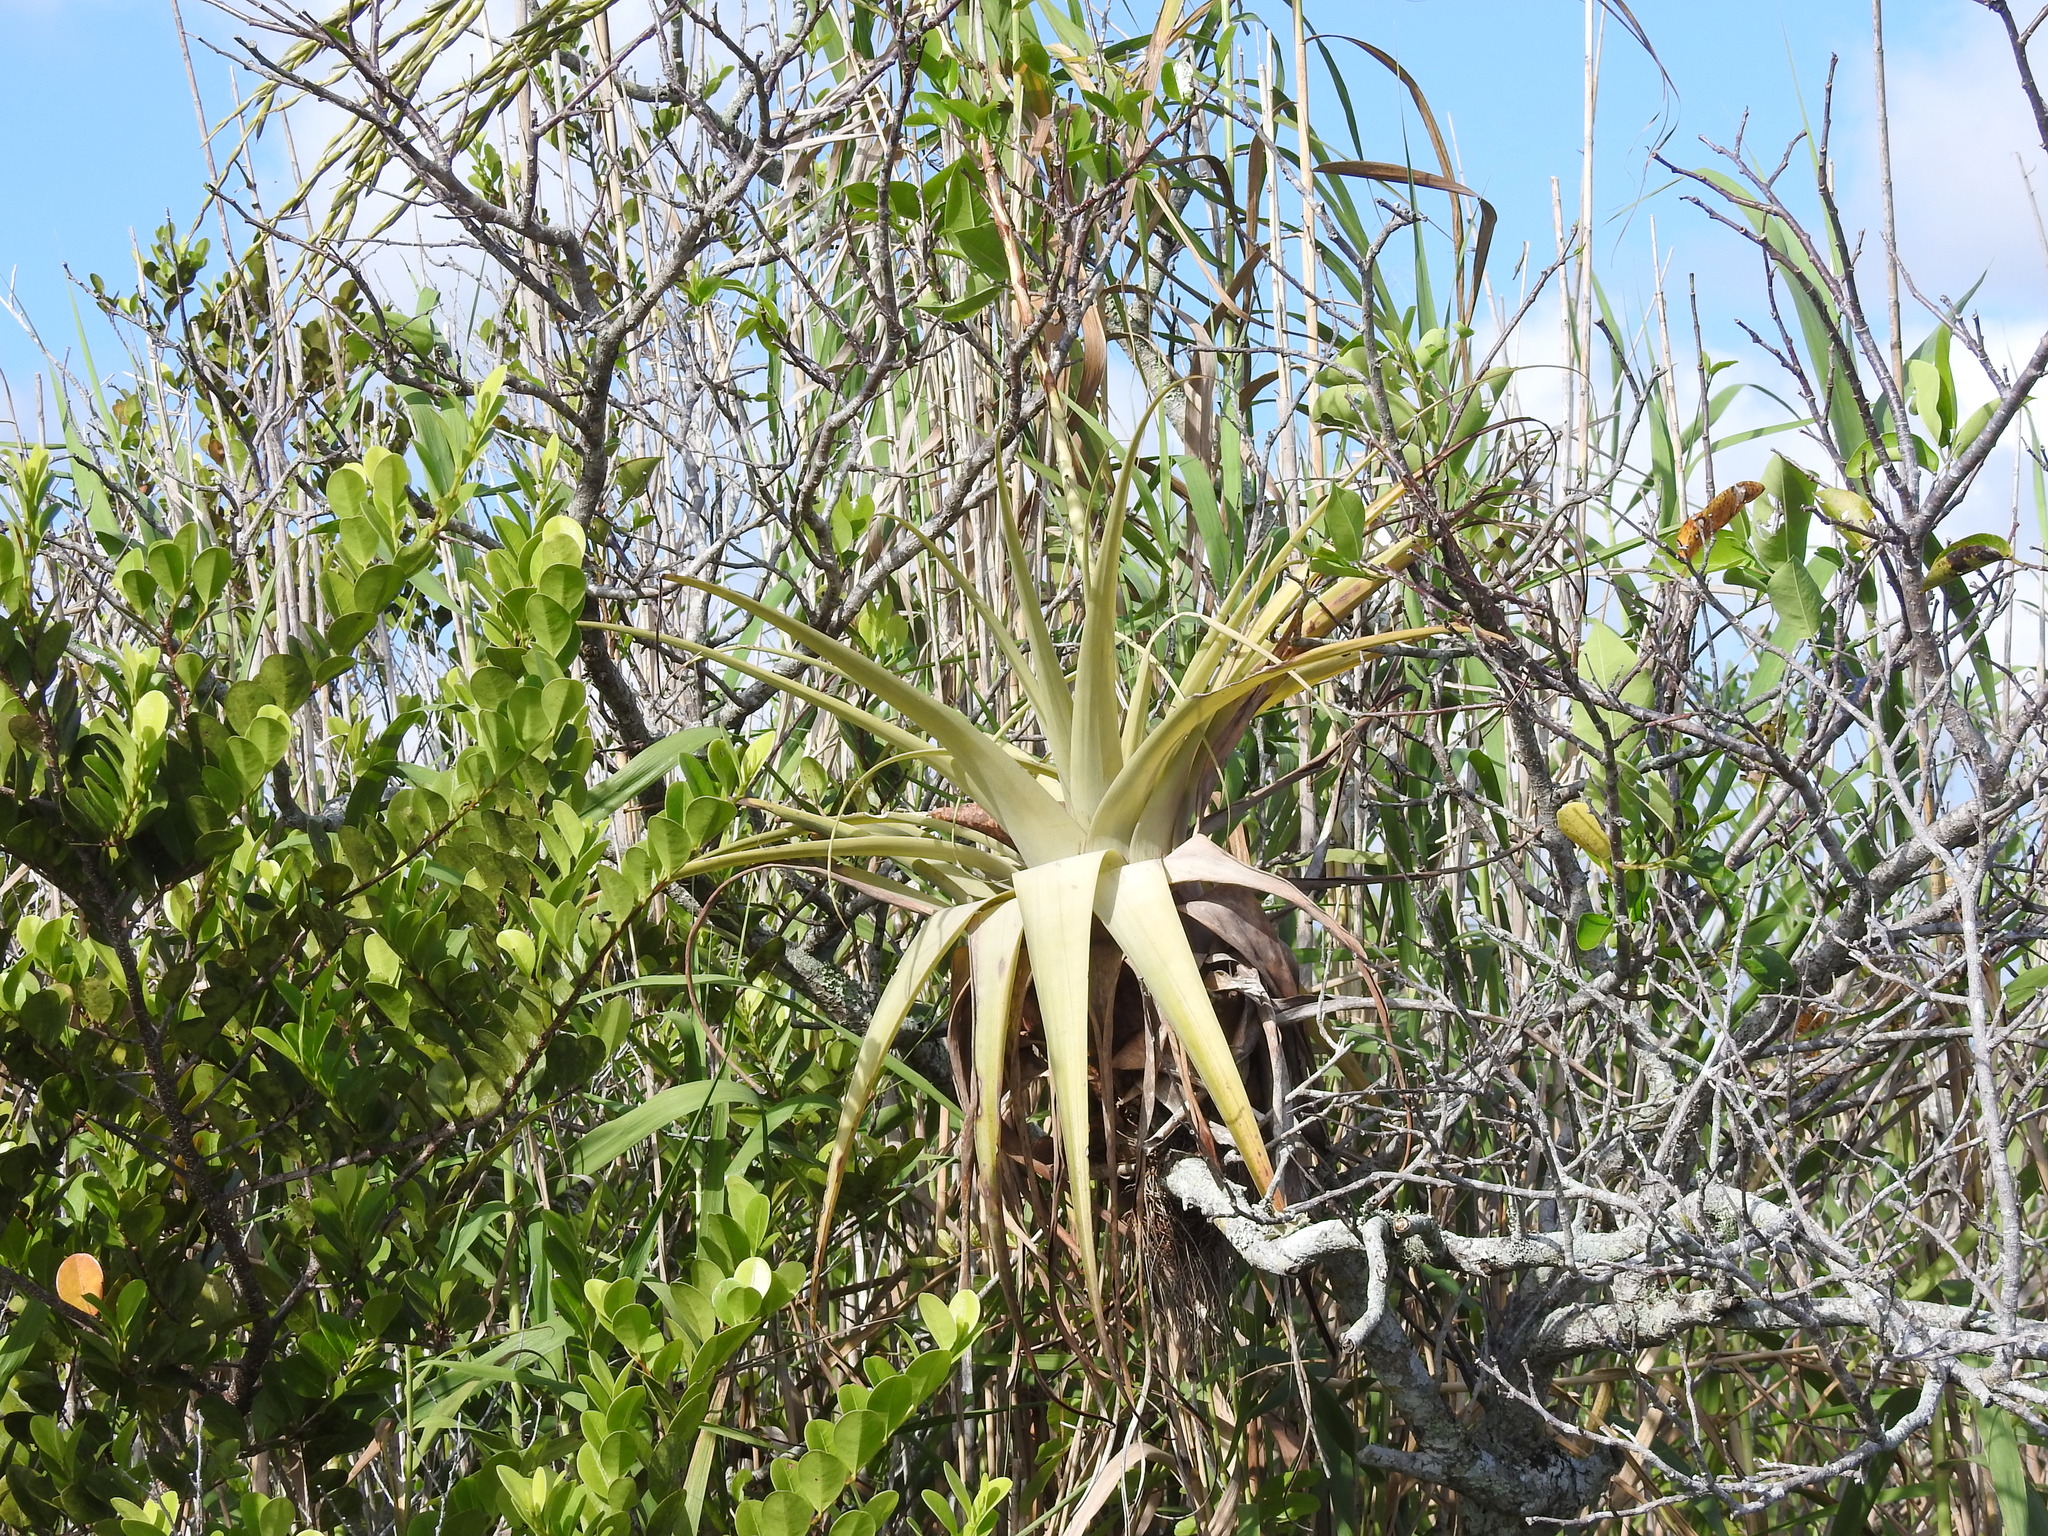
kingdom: Plantae
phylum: Tracheophyta
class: Liliopsida
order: Poales
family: Bromeliaceae
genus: Tillandsia
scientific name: Tillandsia utriculata
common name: Wild pine
